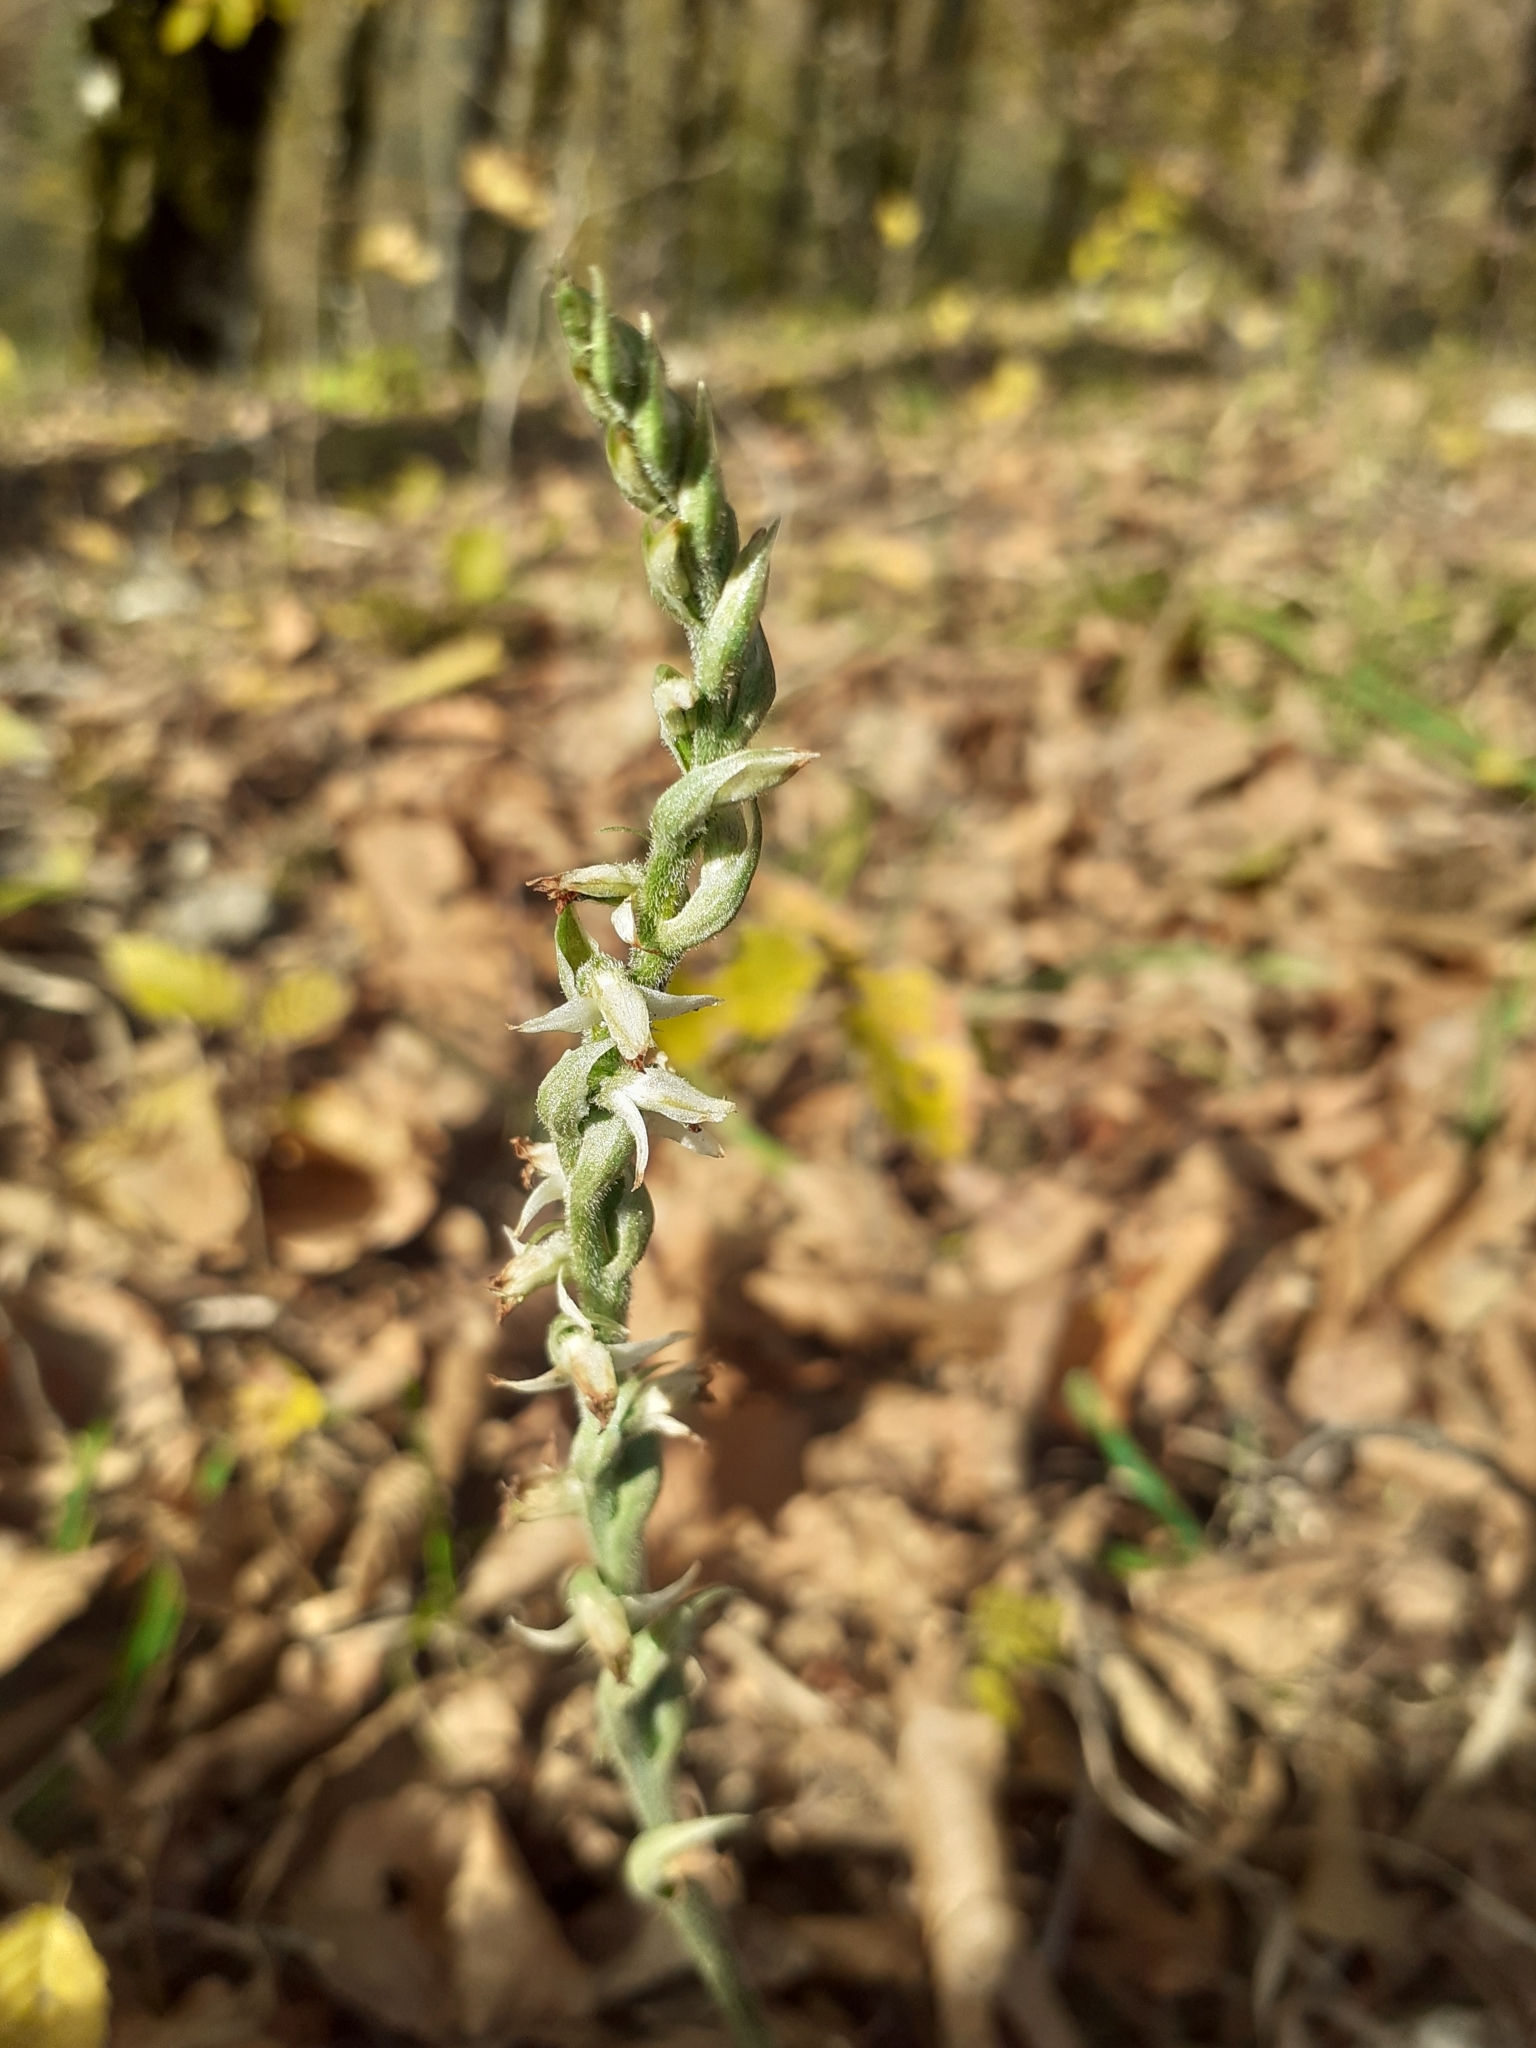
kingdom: Plantae
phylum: Tracheophyta
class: Liliopsida
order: Asparagales
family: Orchidaceae
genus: Spiranthes
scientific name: Spiranthes spiralis
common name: Autumn lady's-tresses
